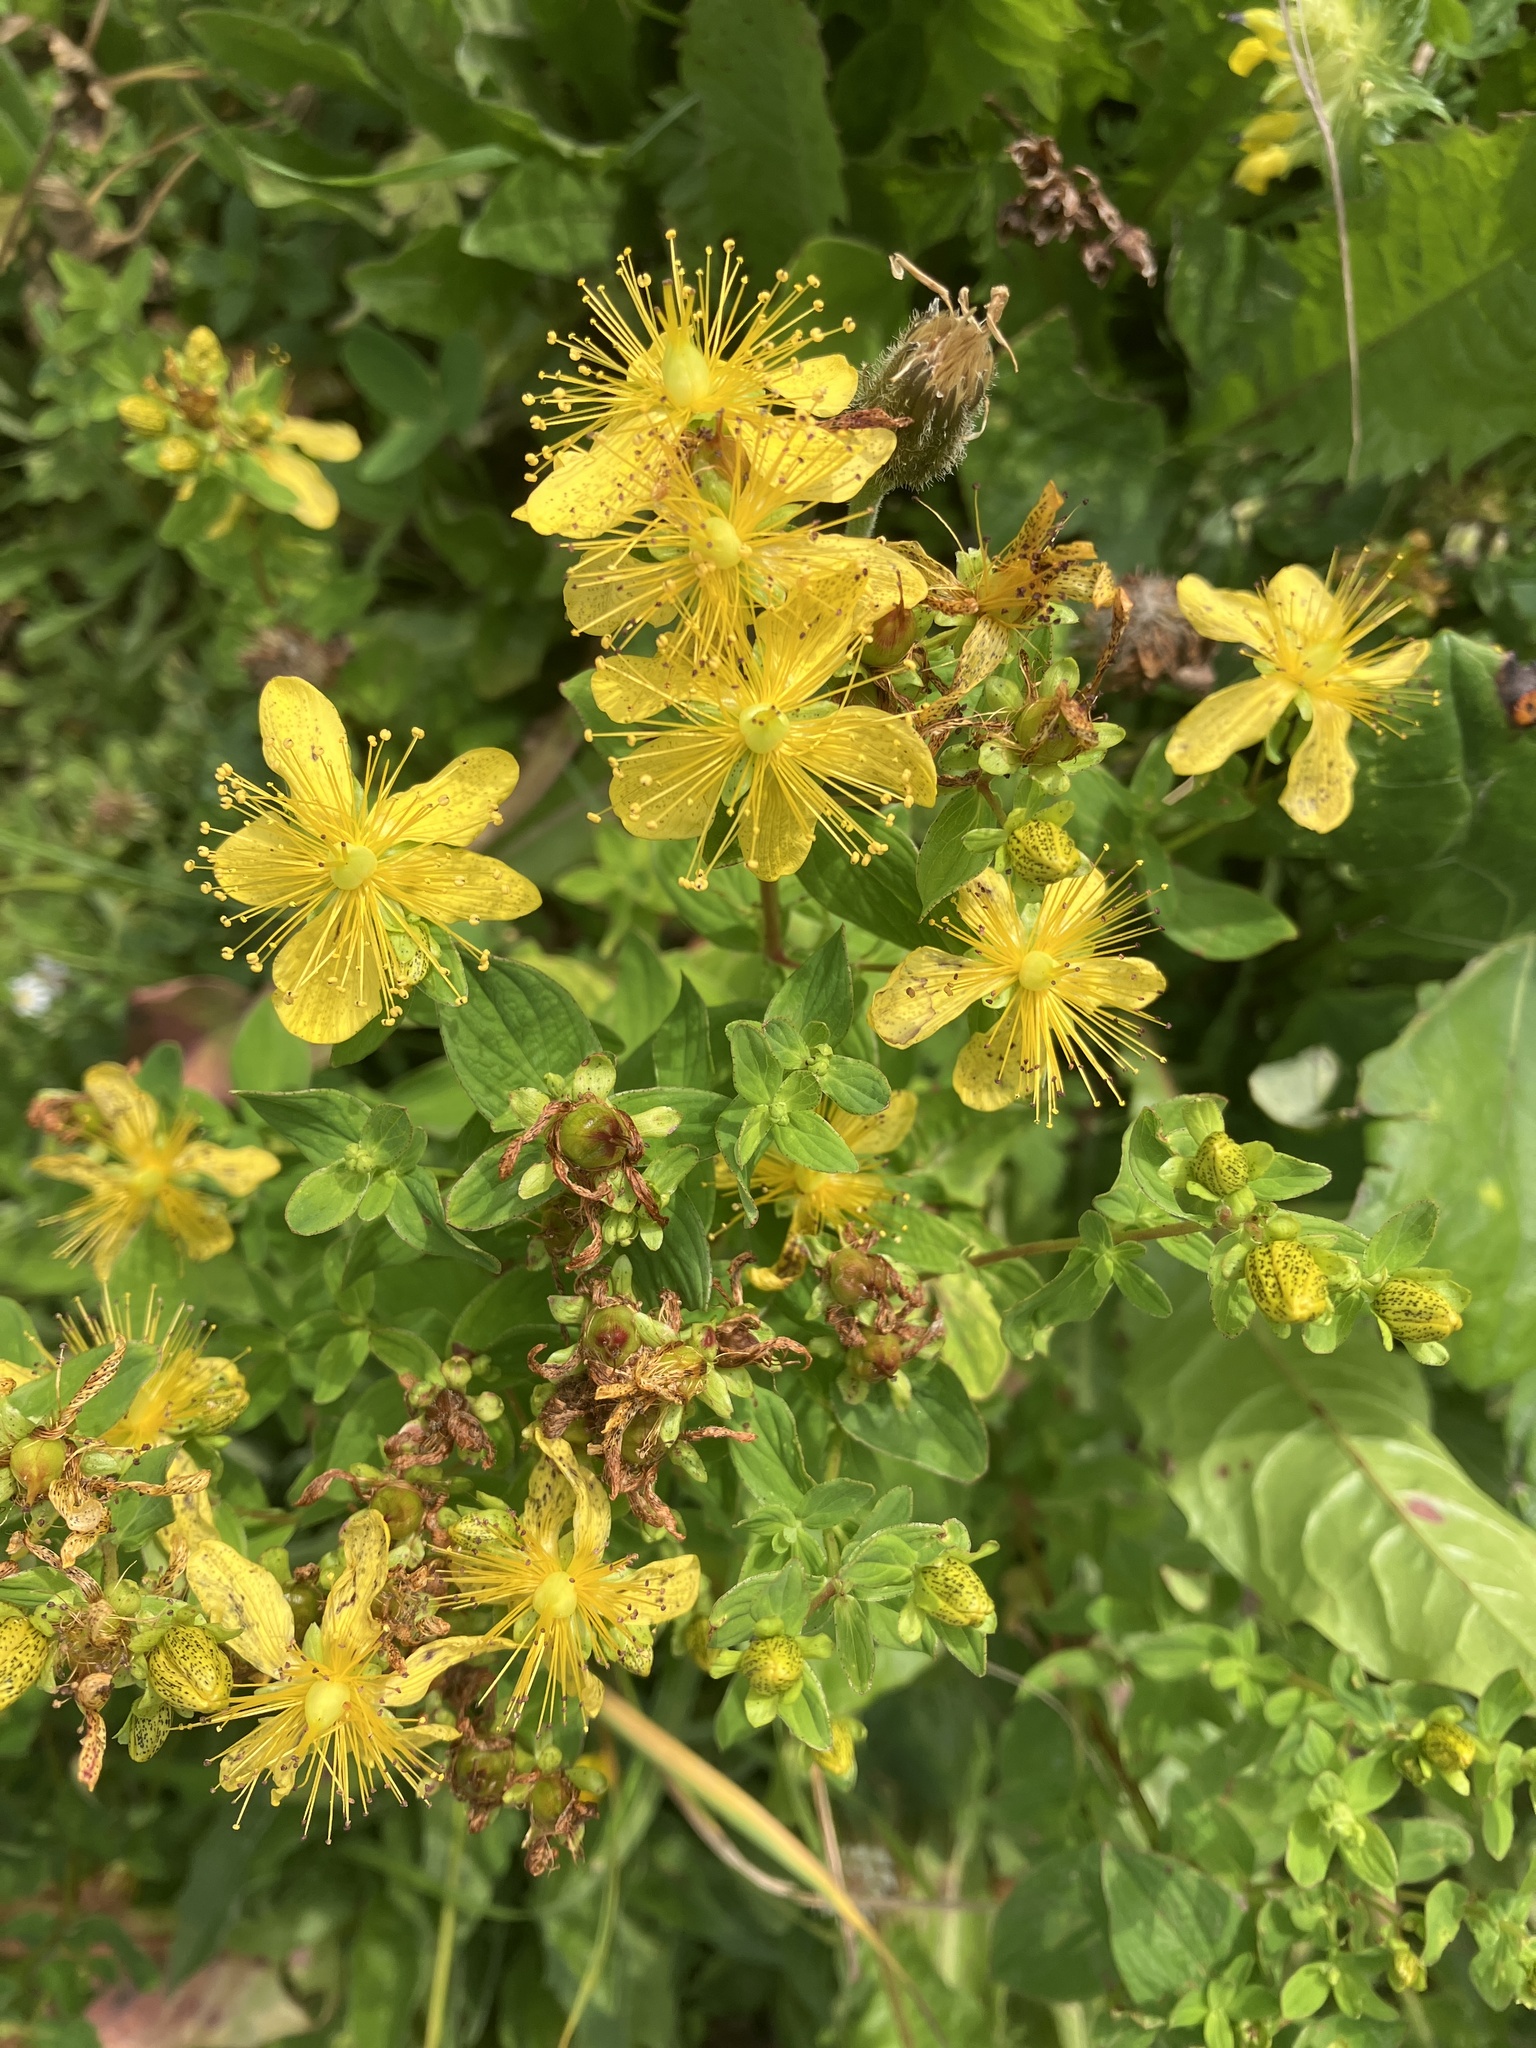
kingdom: Plantae
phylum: Tracheophyta
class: Magnoliopsida
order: Malpighiales
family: Hypericaceae
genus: Hypericum
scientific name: Hypericum maculatum
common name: Imperforate st. john's-wort
